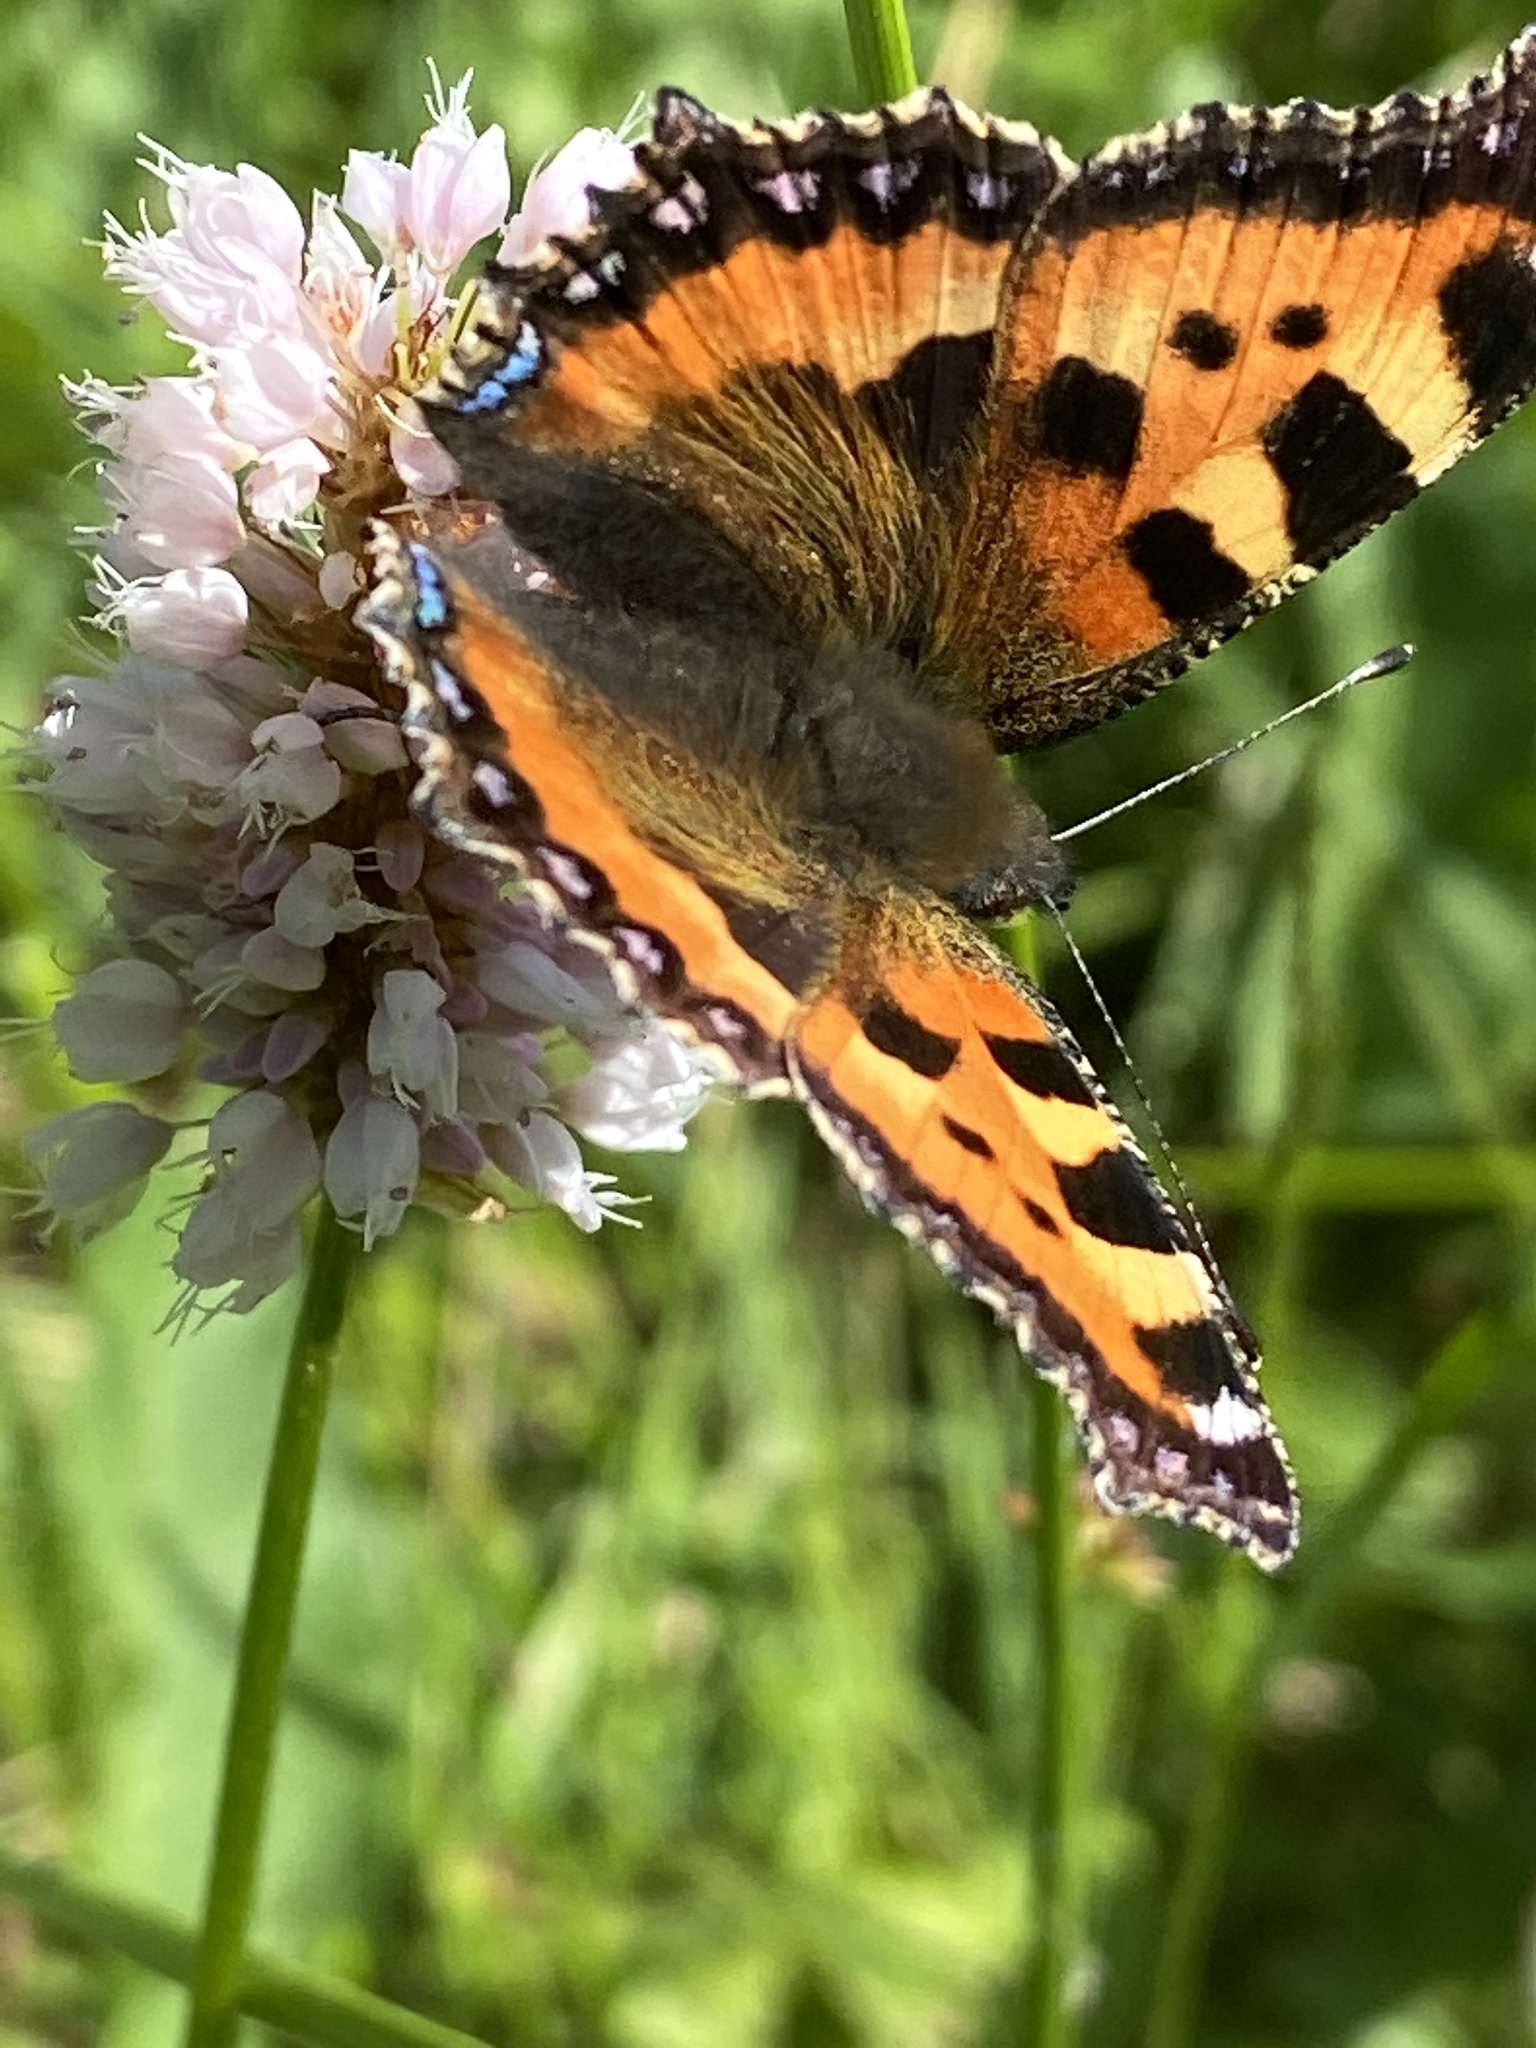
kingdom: Animalia
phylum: Arthropoda
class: Insecta
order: Lepidoptera
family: Nymphalidae
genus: Aglais
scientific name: Aglais urticae
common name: Small tortoiseshell
